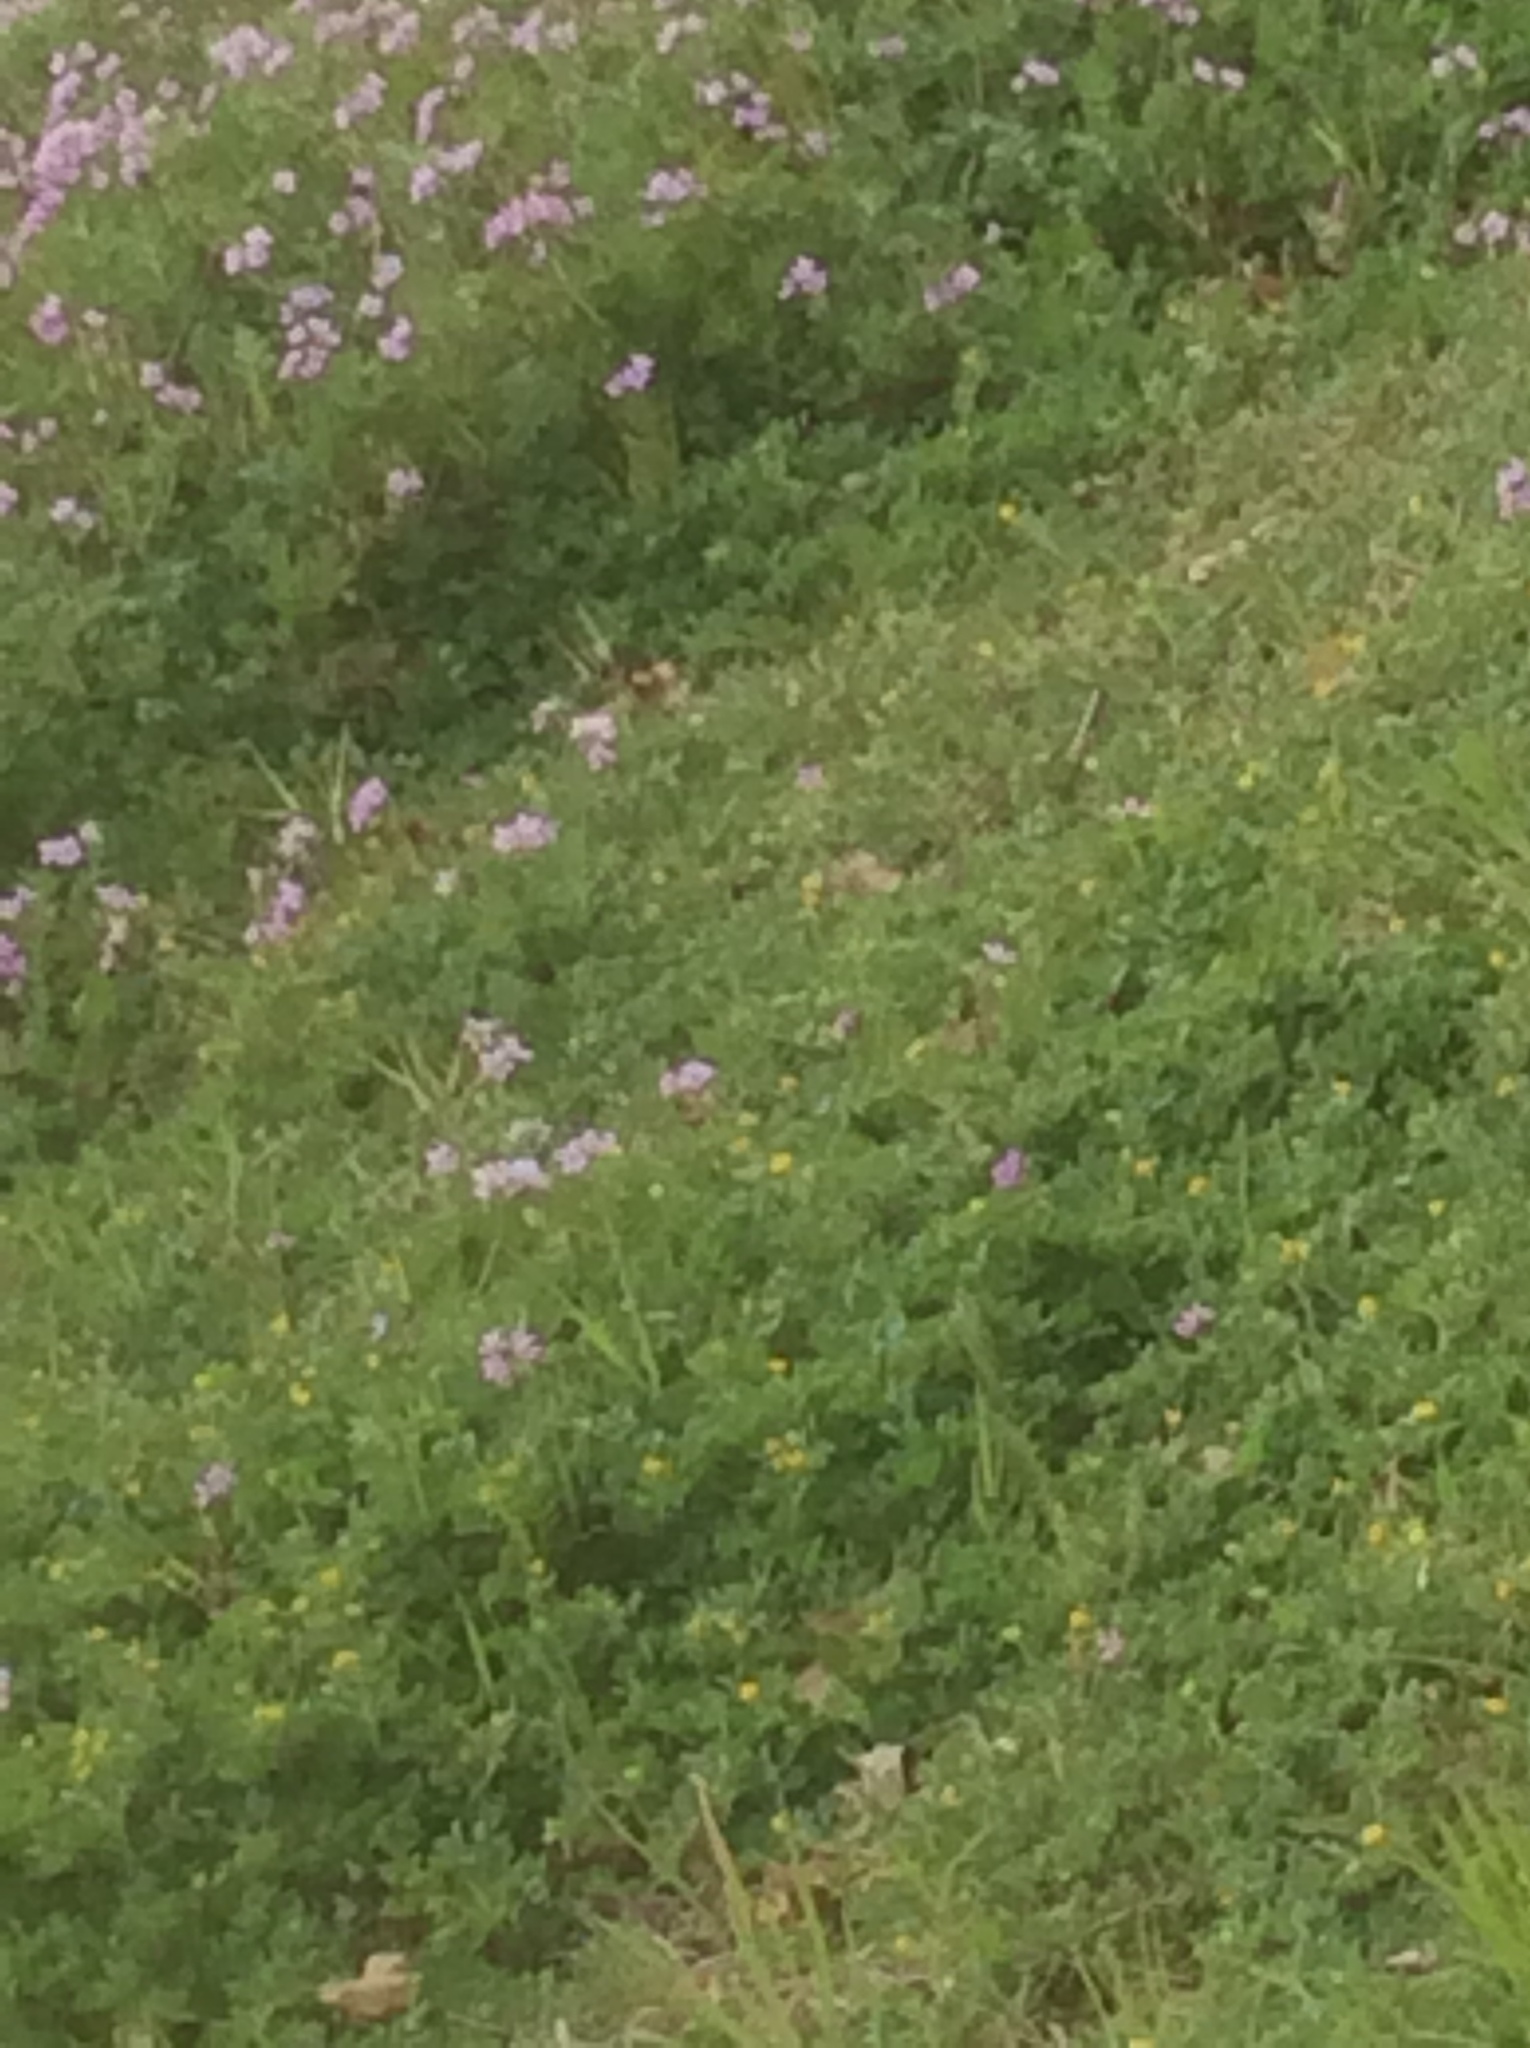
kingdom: Plantae
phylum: Tracheophyta
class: Magnoliopsida
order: Geraniales
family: Geraniaceae
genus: Erodium
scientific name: Erodium cicutarium
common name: Common stork's-bill
